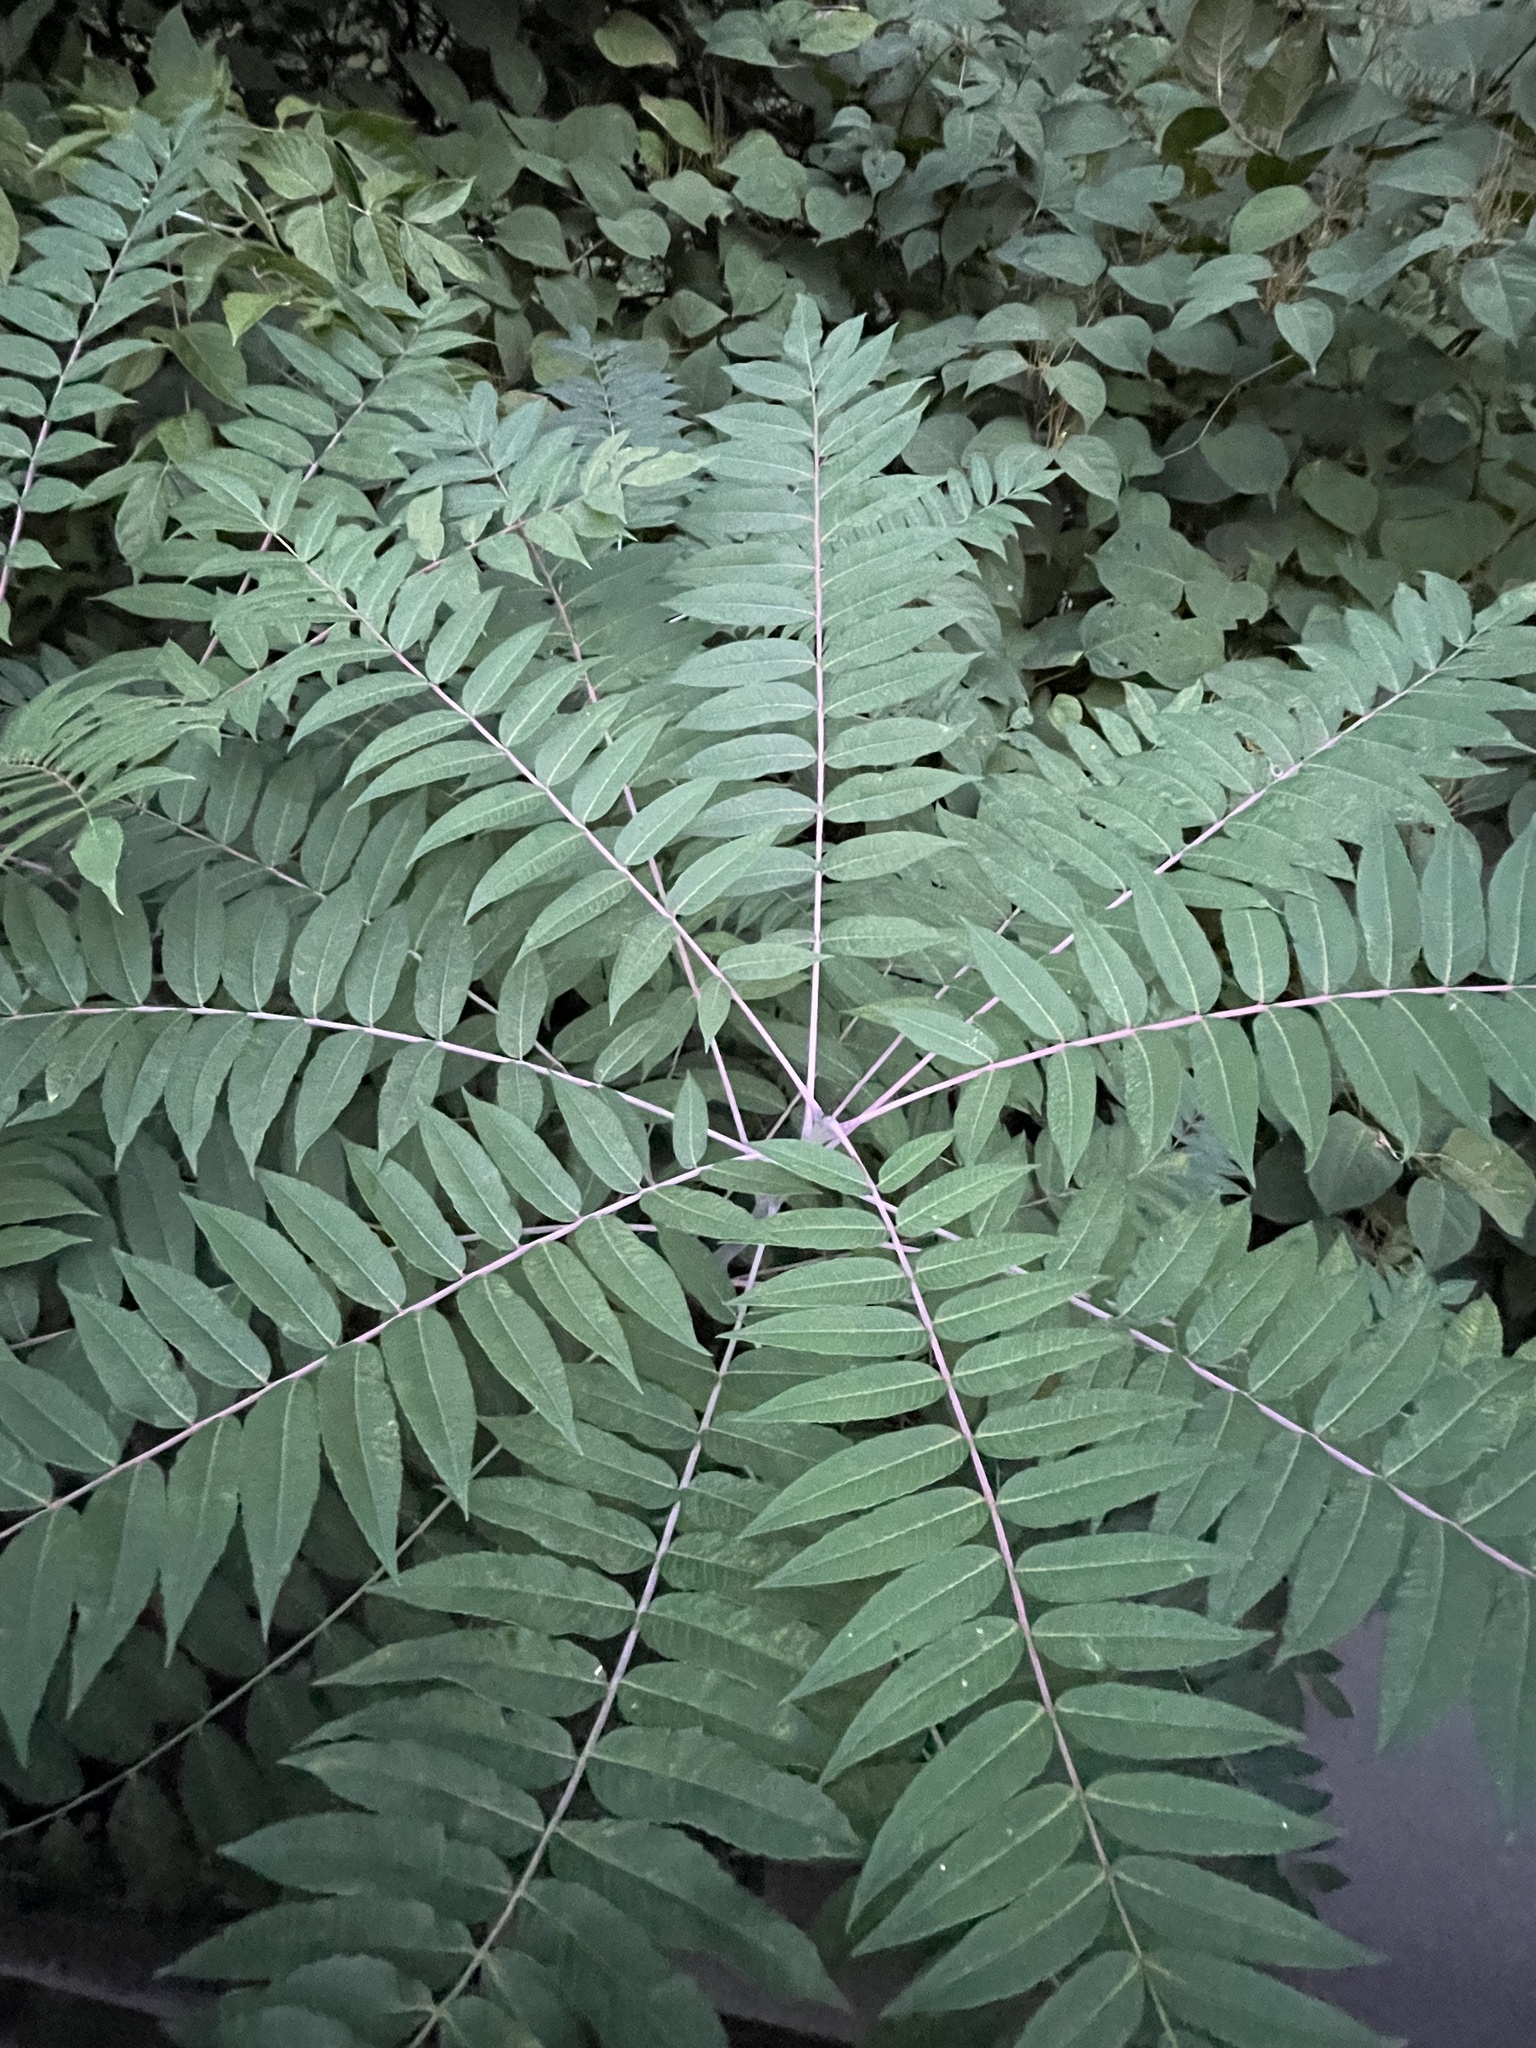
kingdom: Plantae
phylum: Tracheophyta
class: Magnoliopsida
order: Sapindales
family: Anacardiaceae
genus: Rhus
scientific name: Rhus glabra
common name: Scarlet sumac
